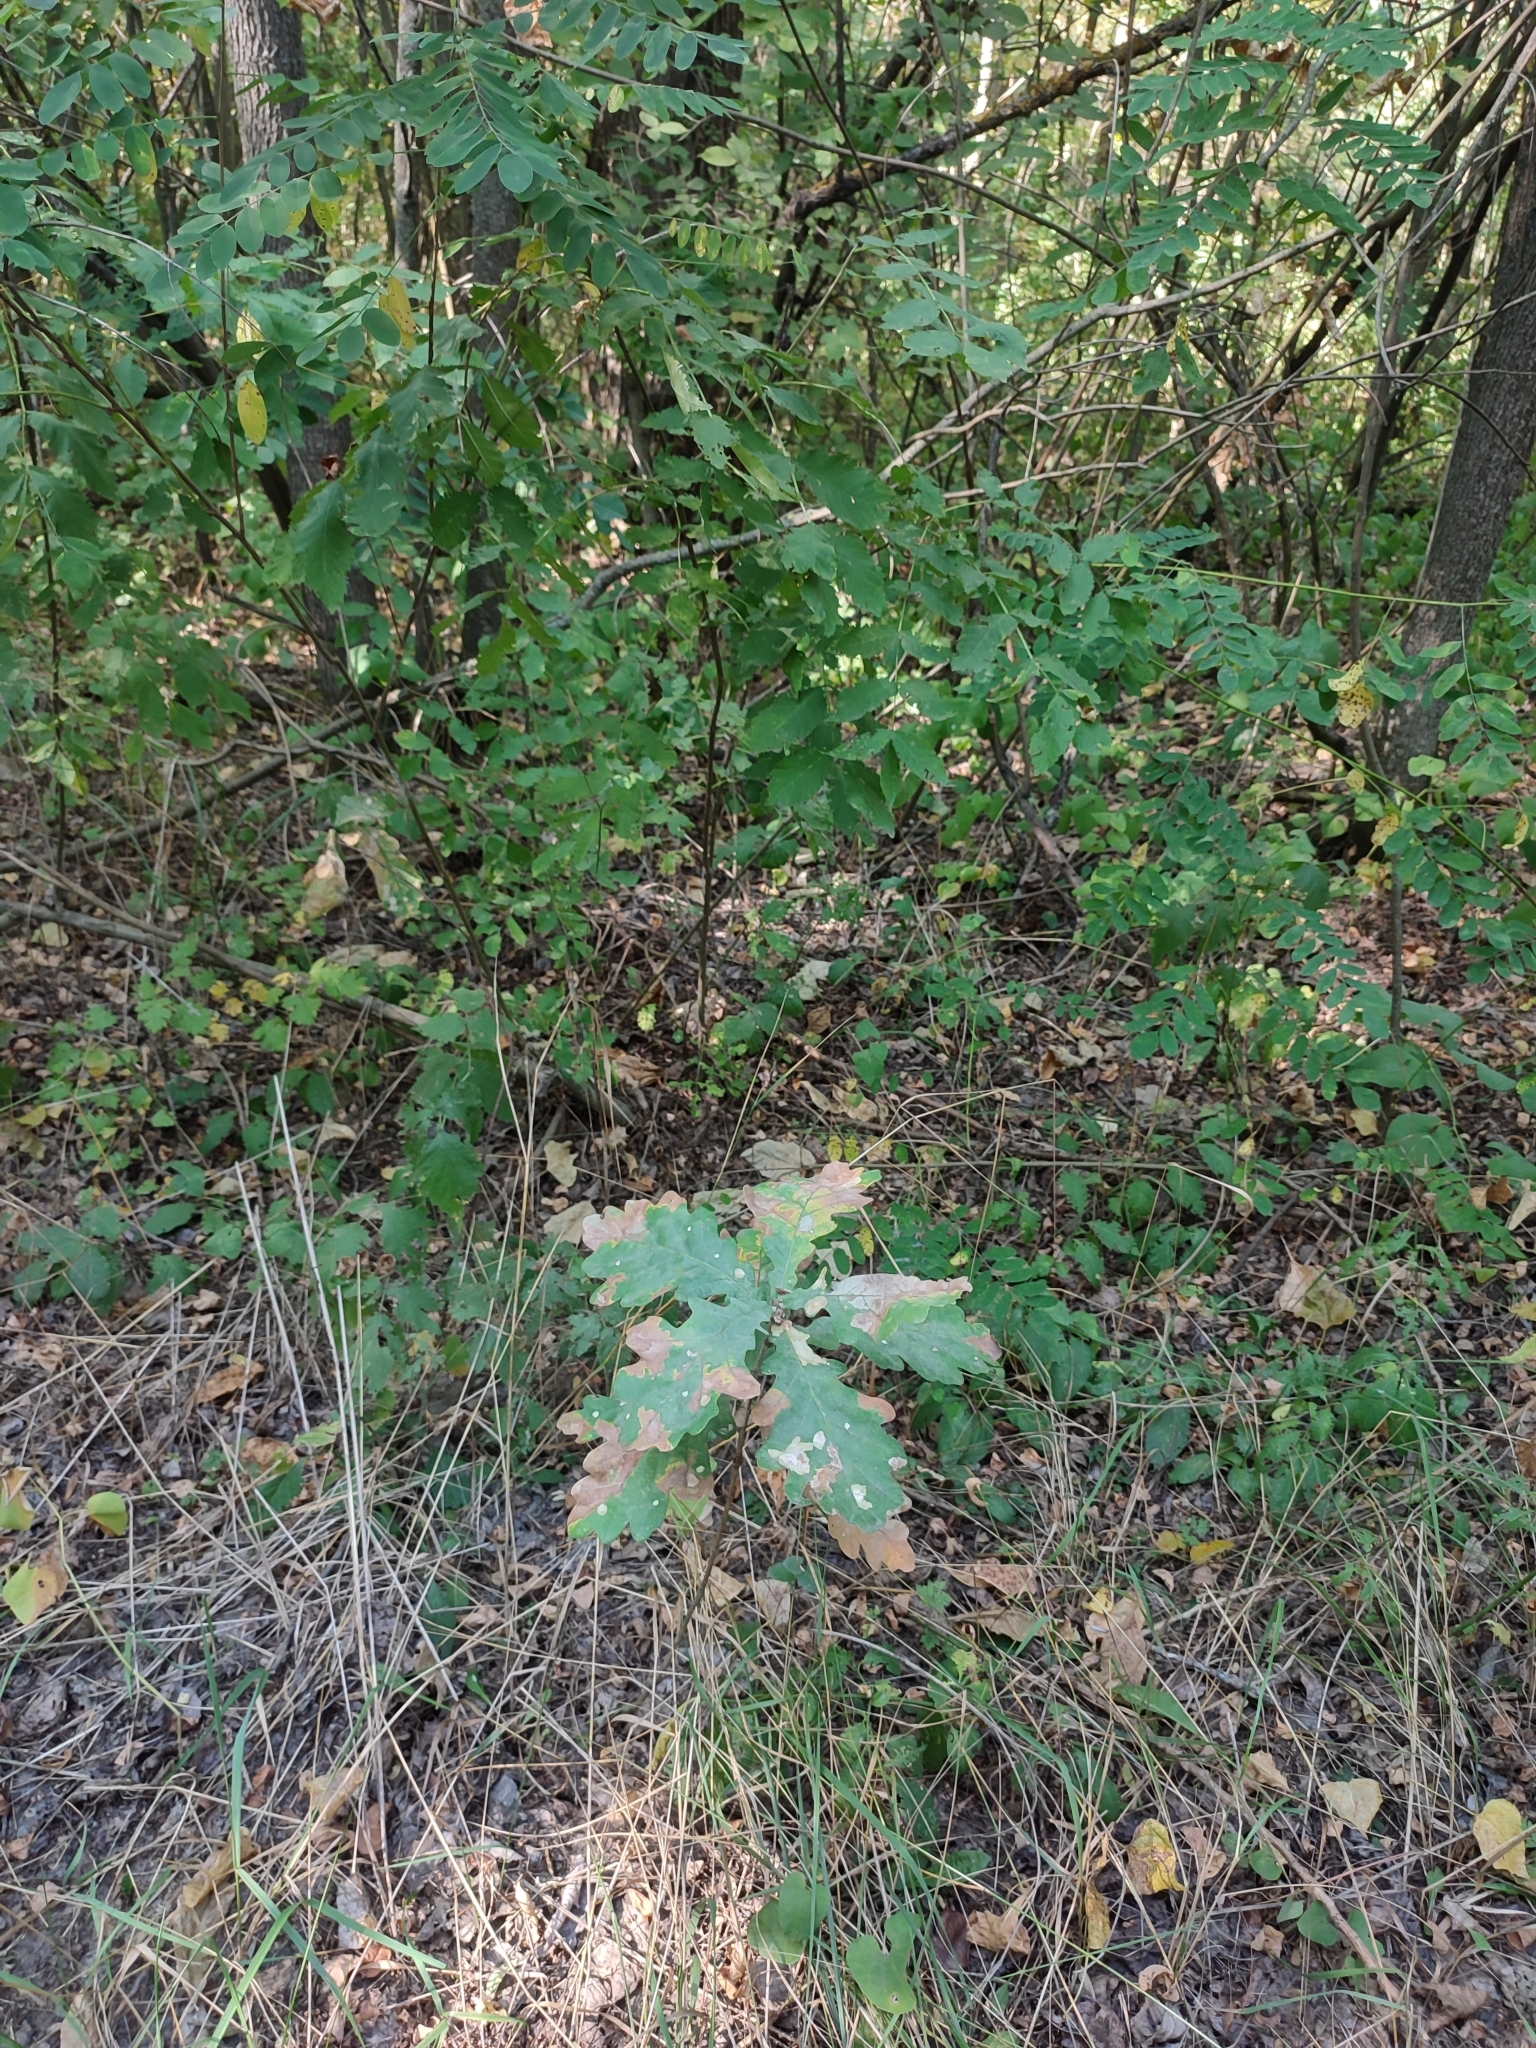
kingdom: Plantae
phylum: Tracheophyta
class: Magnoliopsida
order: Fagales
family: Fagaceae
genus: Quercus
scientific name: Quercus robur
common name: Pedunculate oak
